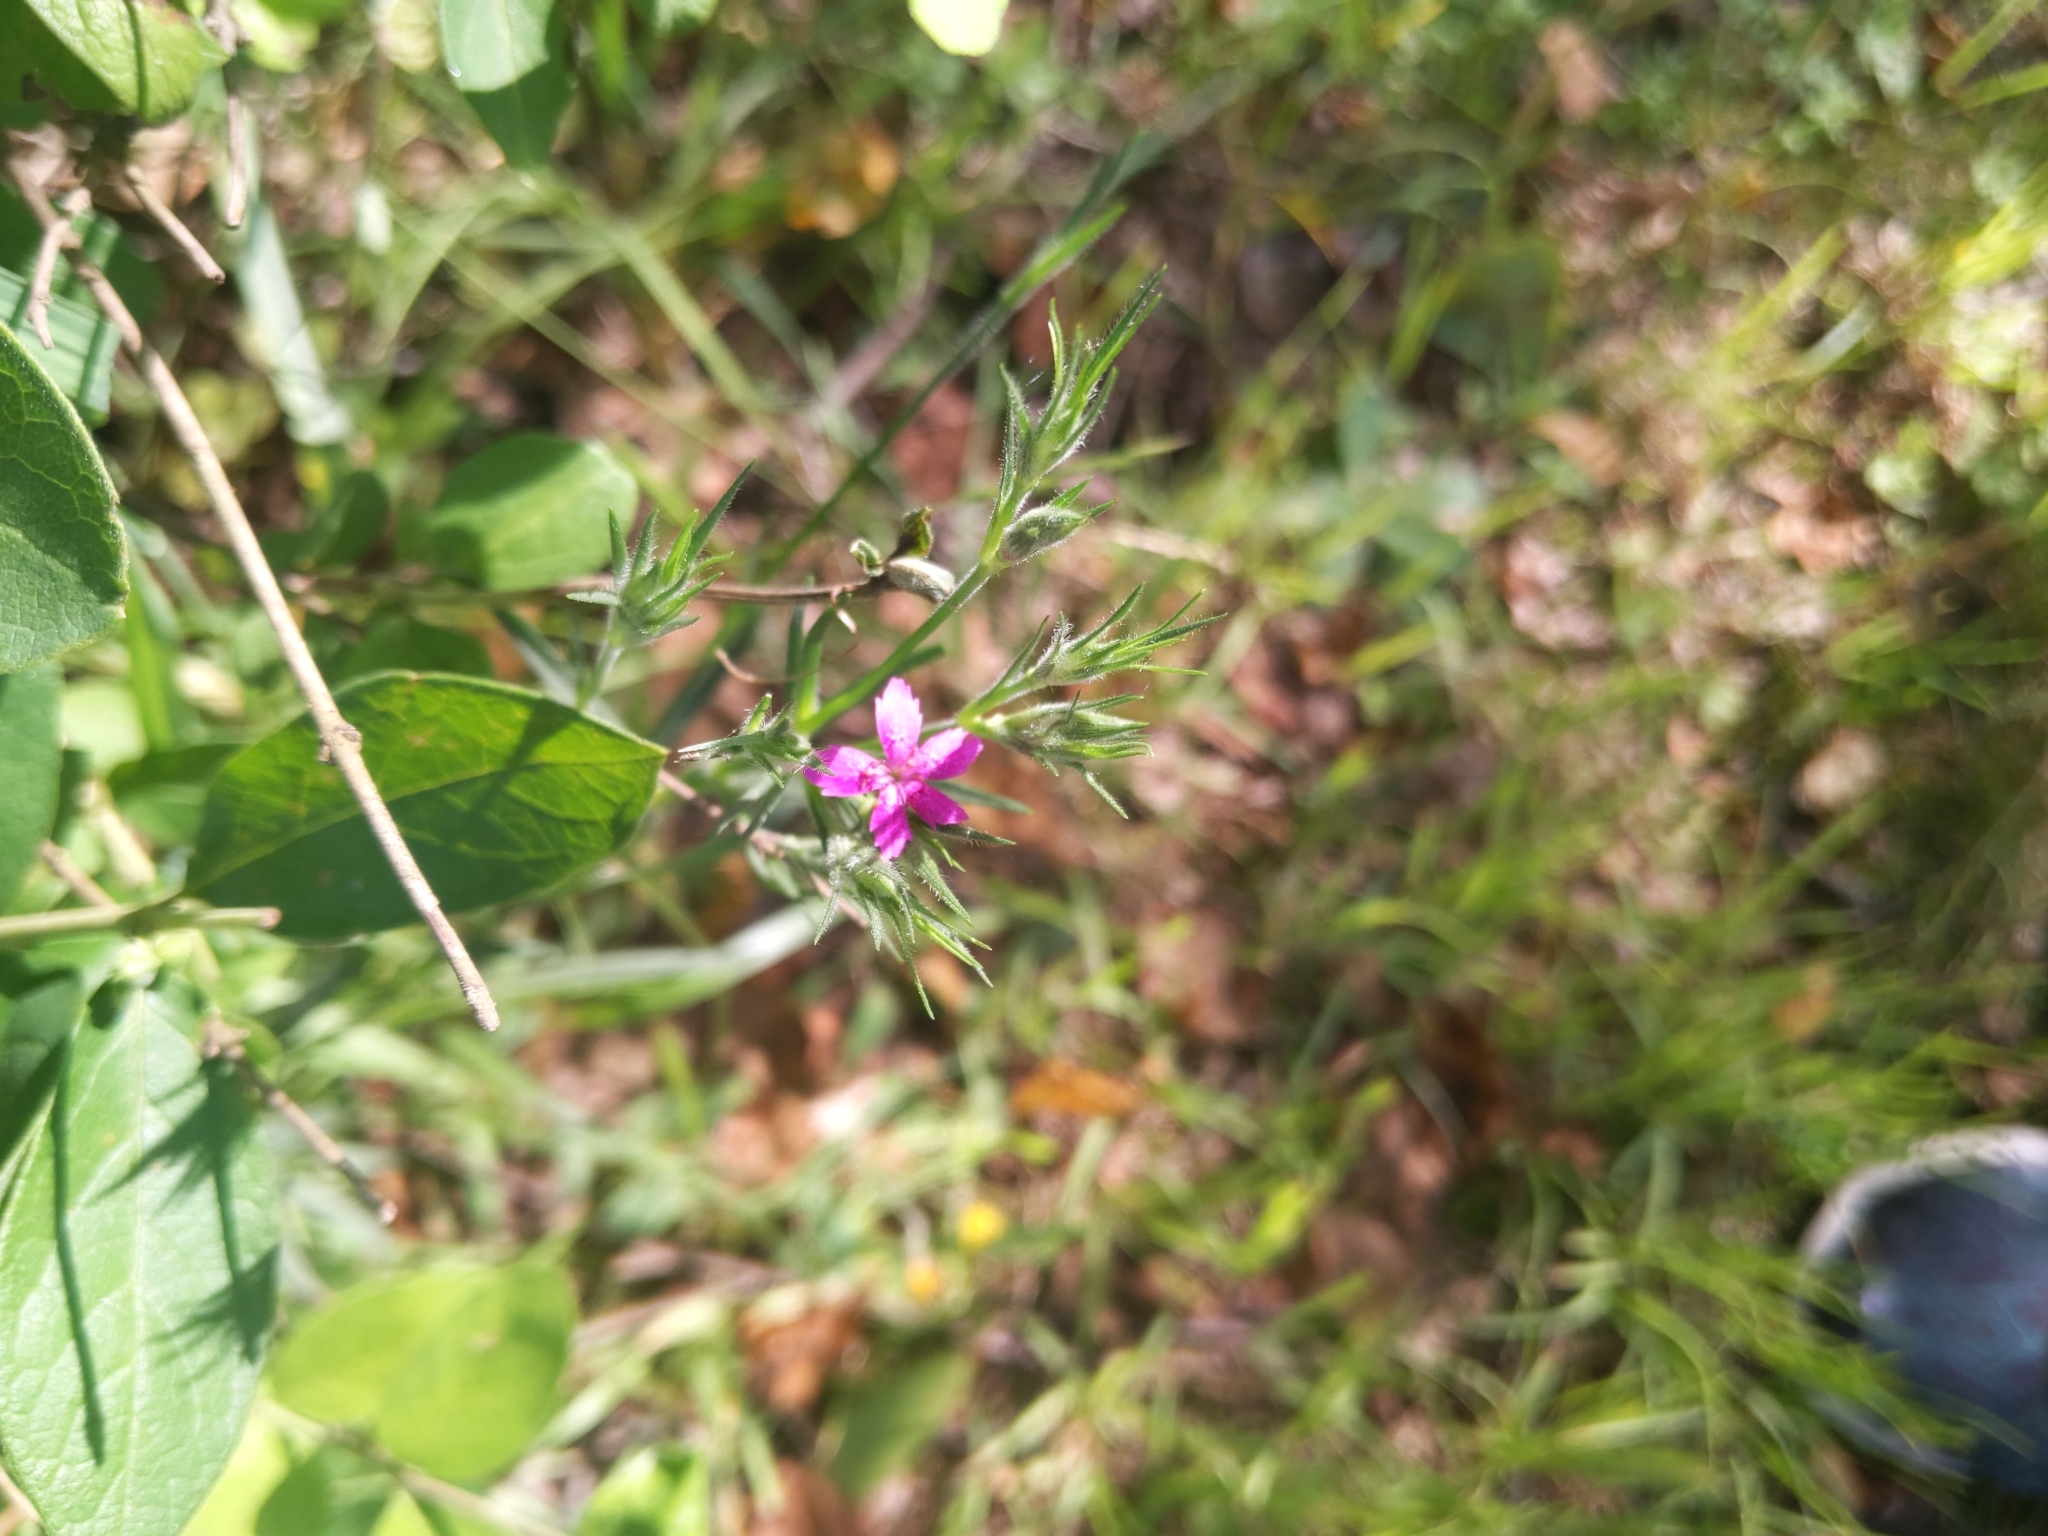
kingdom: Plantae
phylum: Tracheophyta
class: Magnoliopsida
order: Caryophyllales
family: Caryophyllaceae
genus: Dianthus
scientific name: Dianthus armeria
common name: Deptford pink
